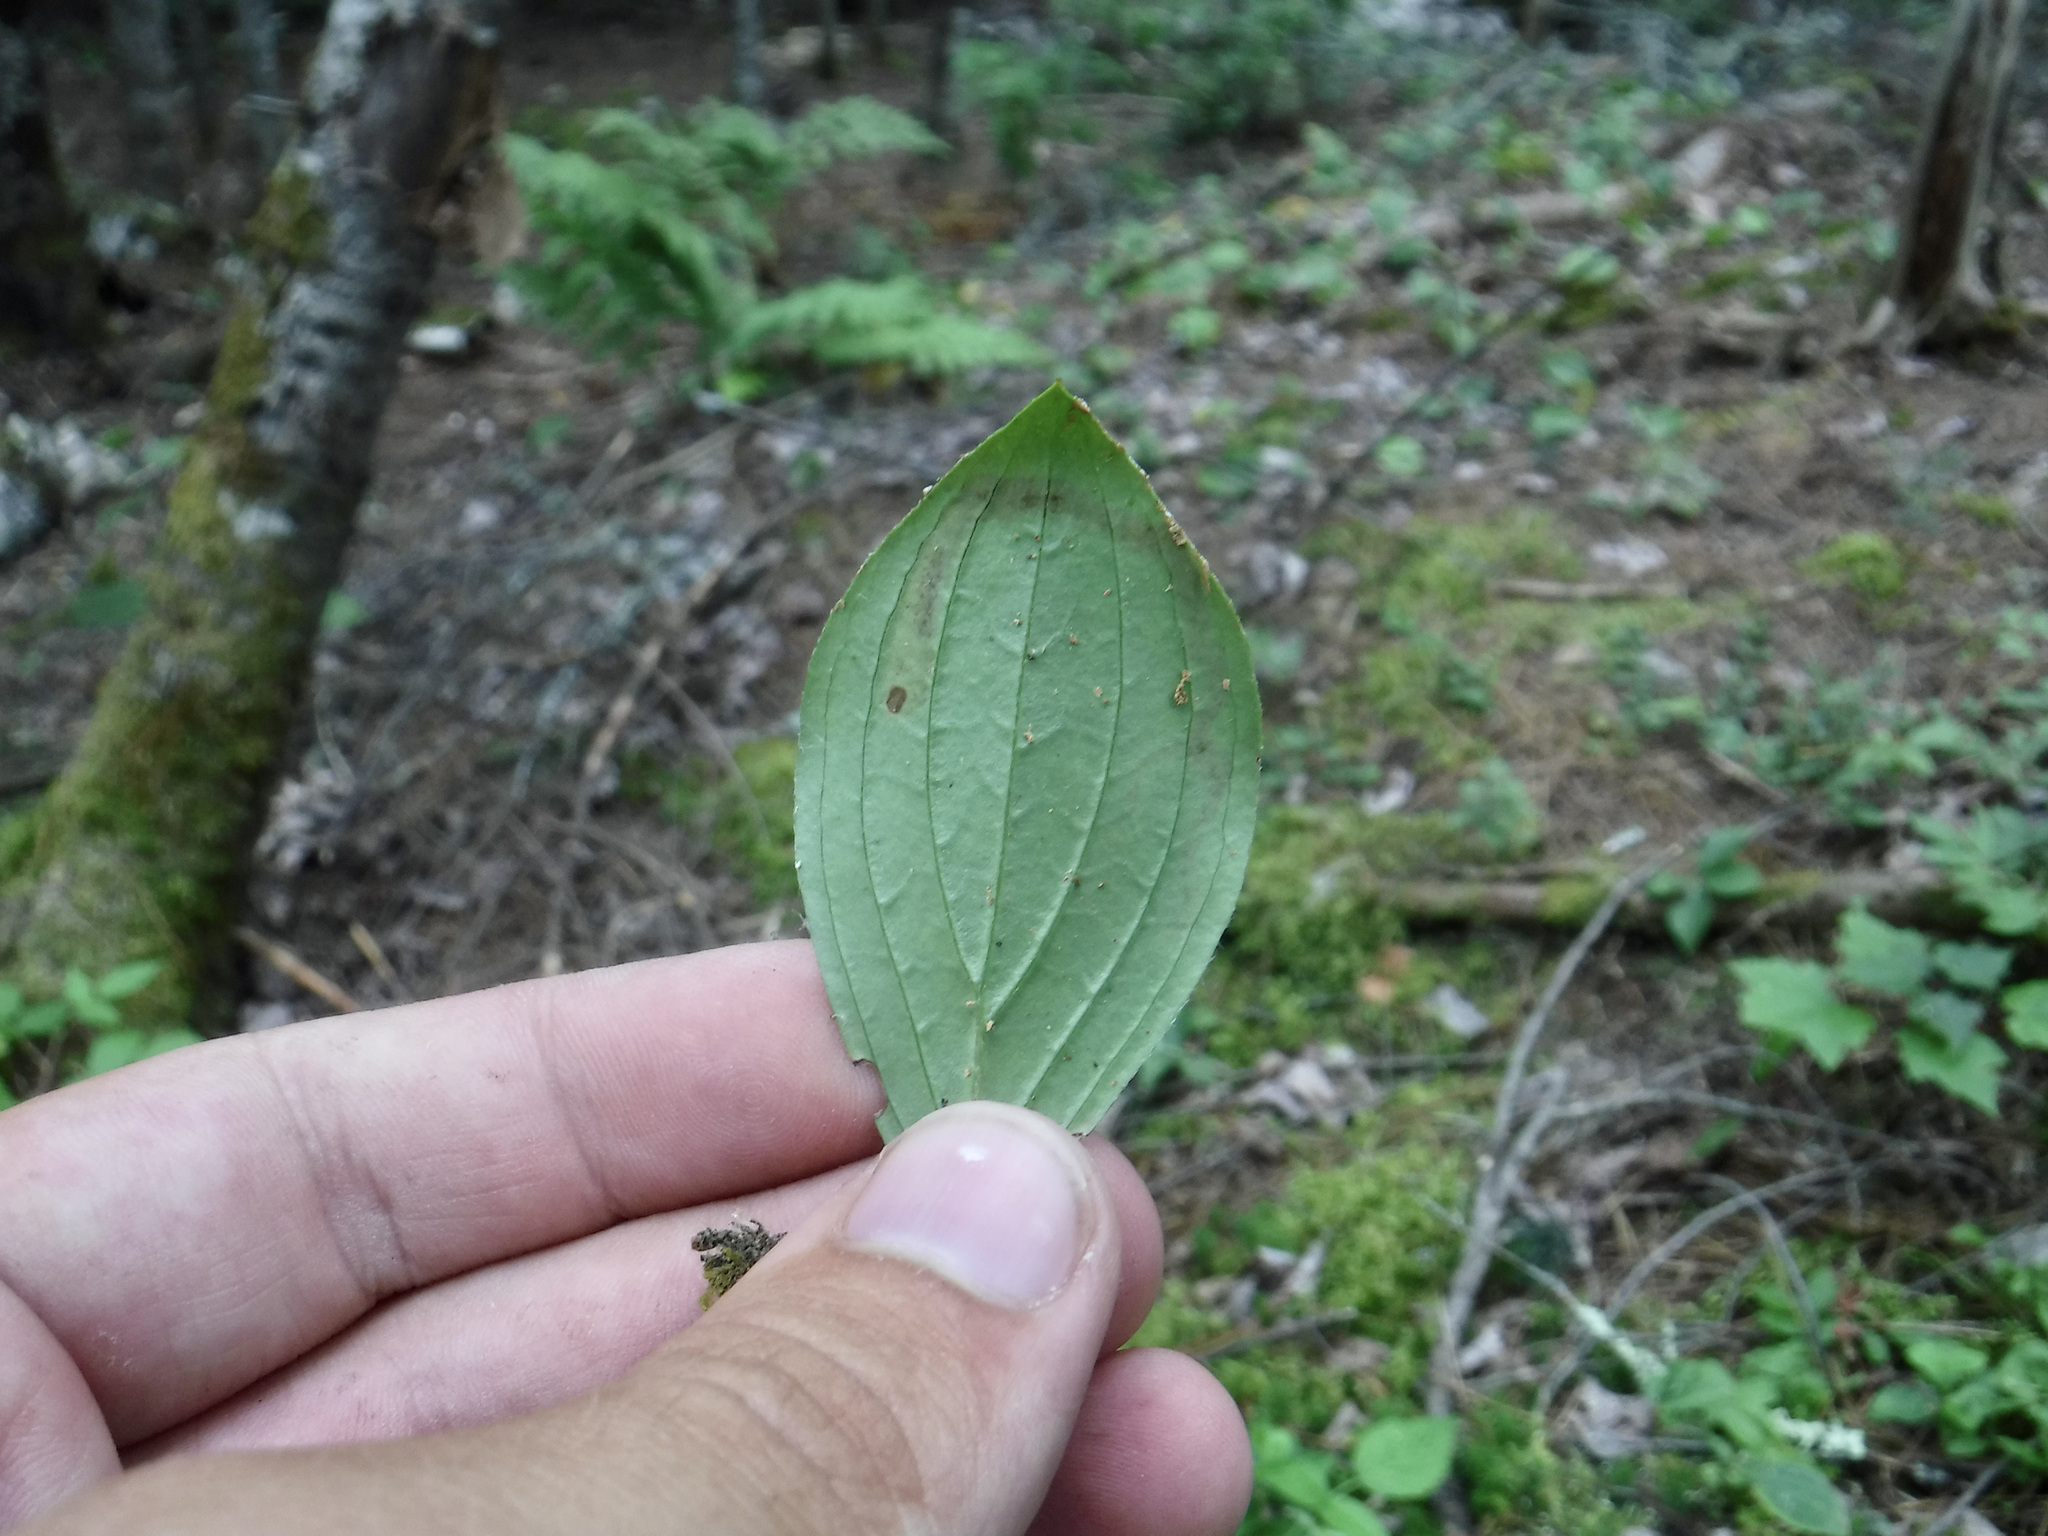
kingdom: Animalia
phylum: Arthropoda
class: Insecta
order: Diptera
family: Agromyzidae
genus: Phytomyza
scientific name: Phytomyza agromyzina
